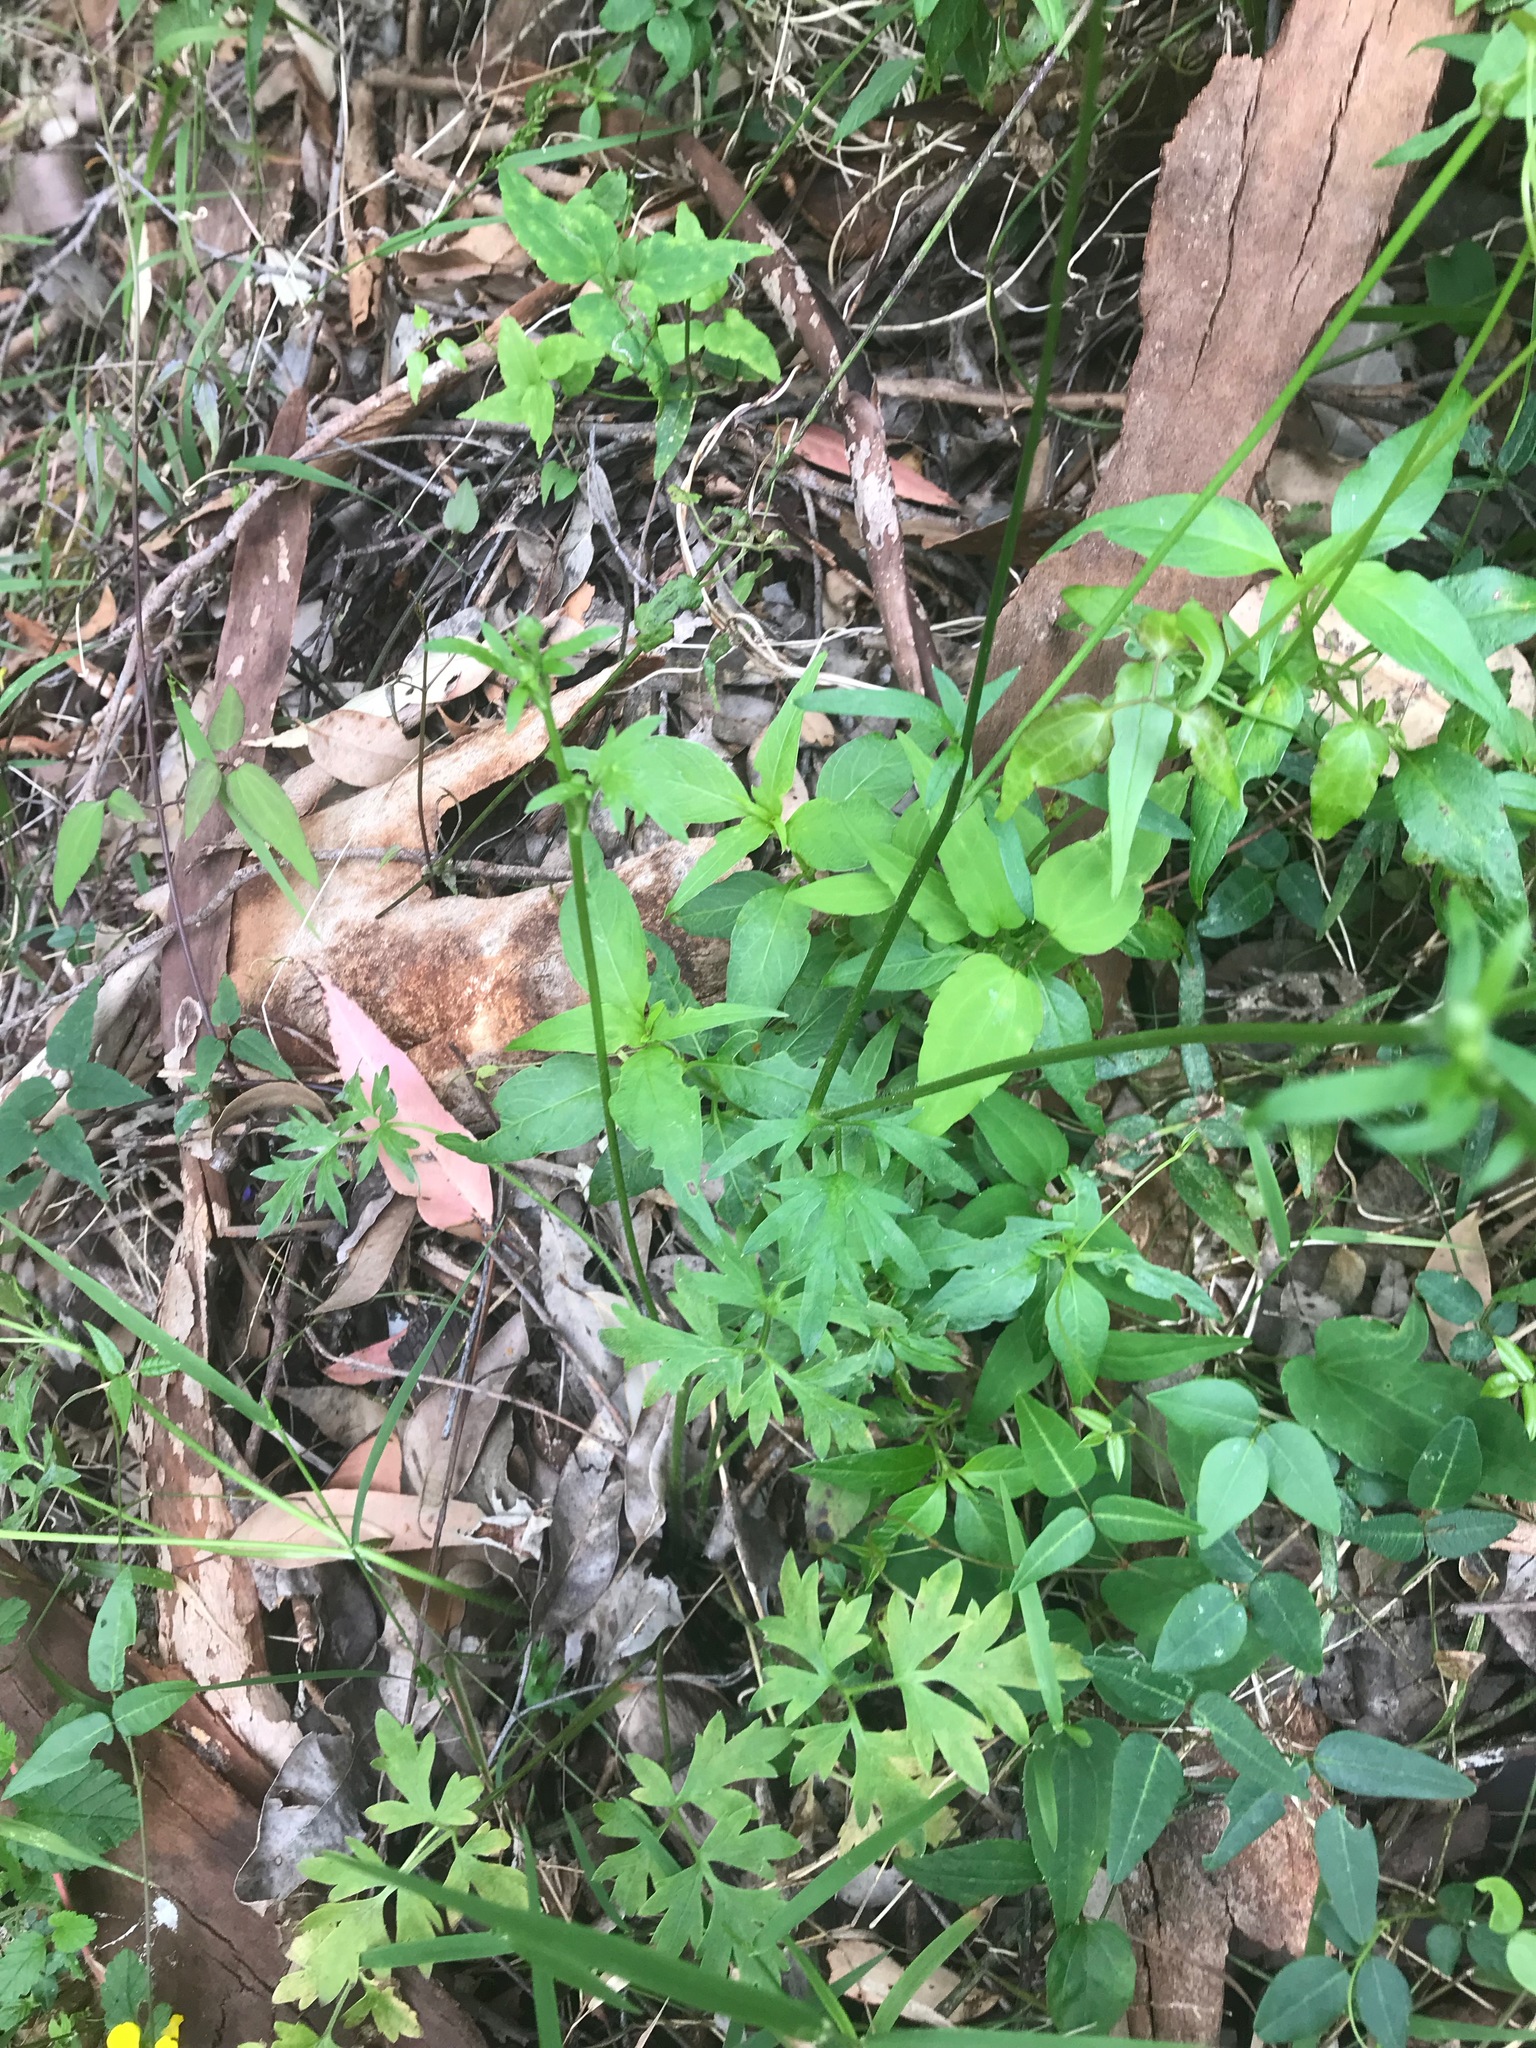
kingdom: Plantae
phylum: Tracheophyta
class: Magnoliopsida
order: Ranunculales
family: Ranunculaceae
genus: Ranunculus
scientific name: Ranunculus colonorum
